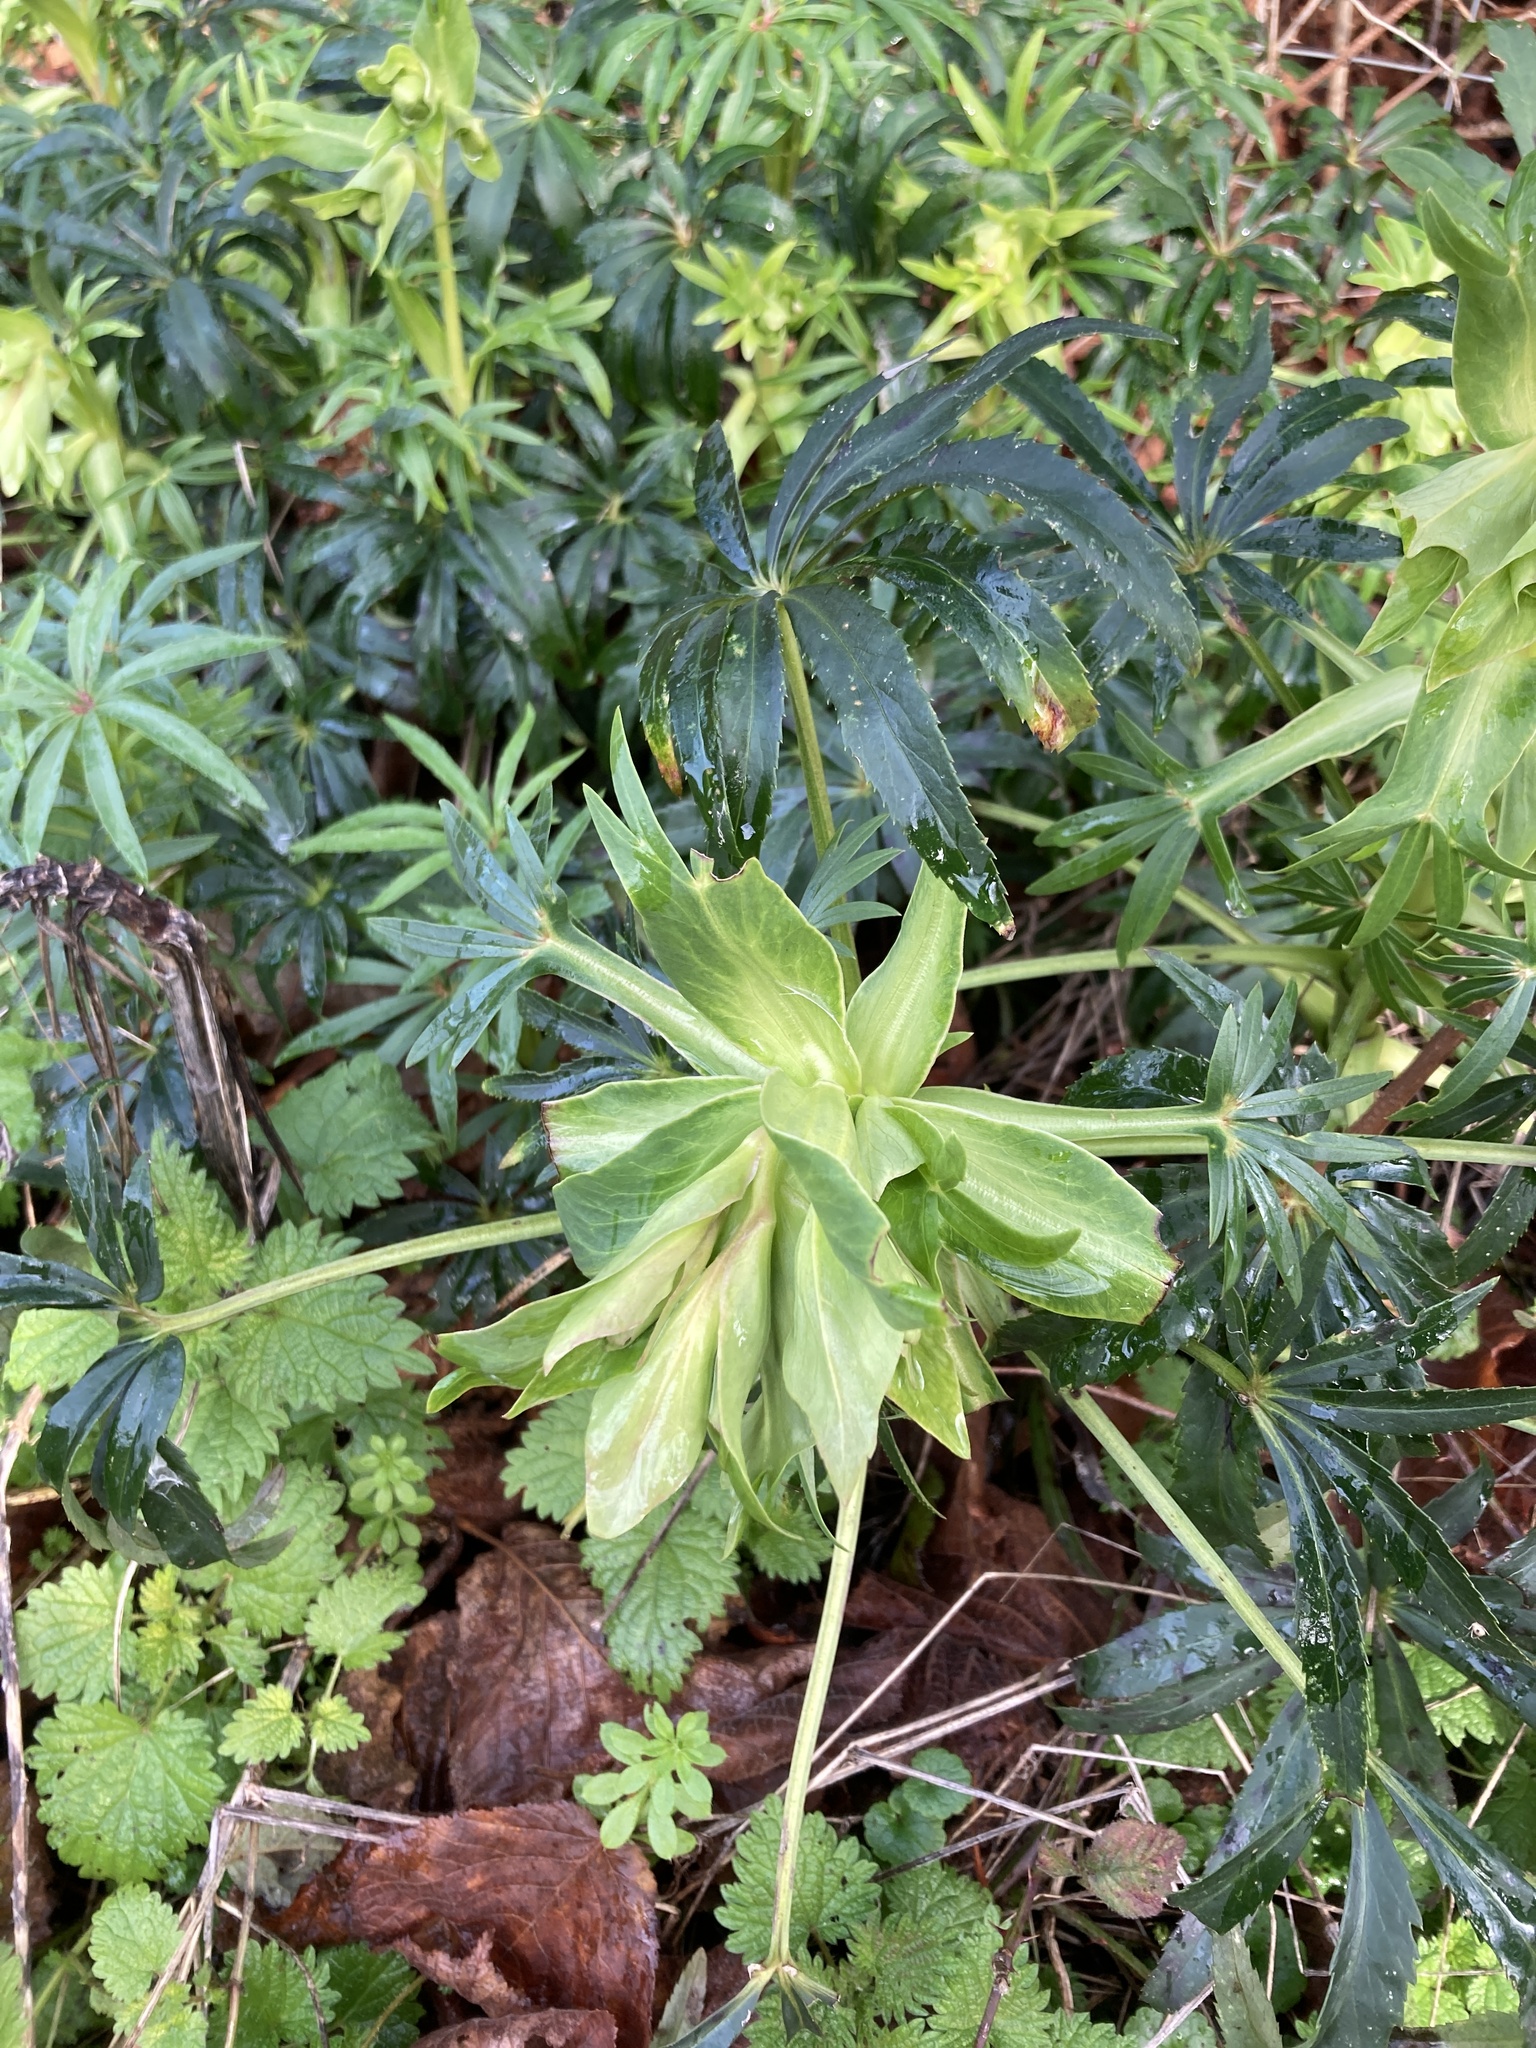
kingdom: Plantae
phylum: Tracheophyta
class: Magnoliopsida
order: Ranunculales
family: Ranunculaceae
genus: Helleborus
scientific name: Helleborus foetidus
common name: Stinking hellebore
